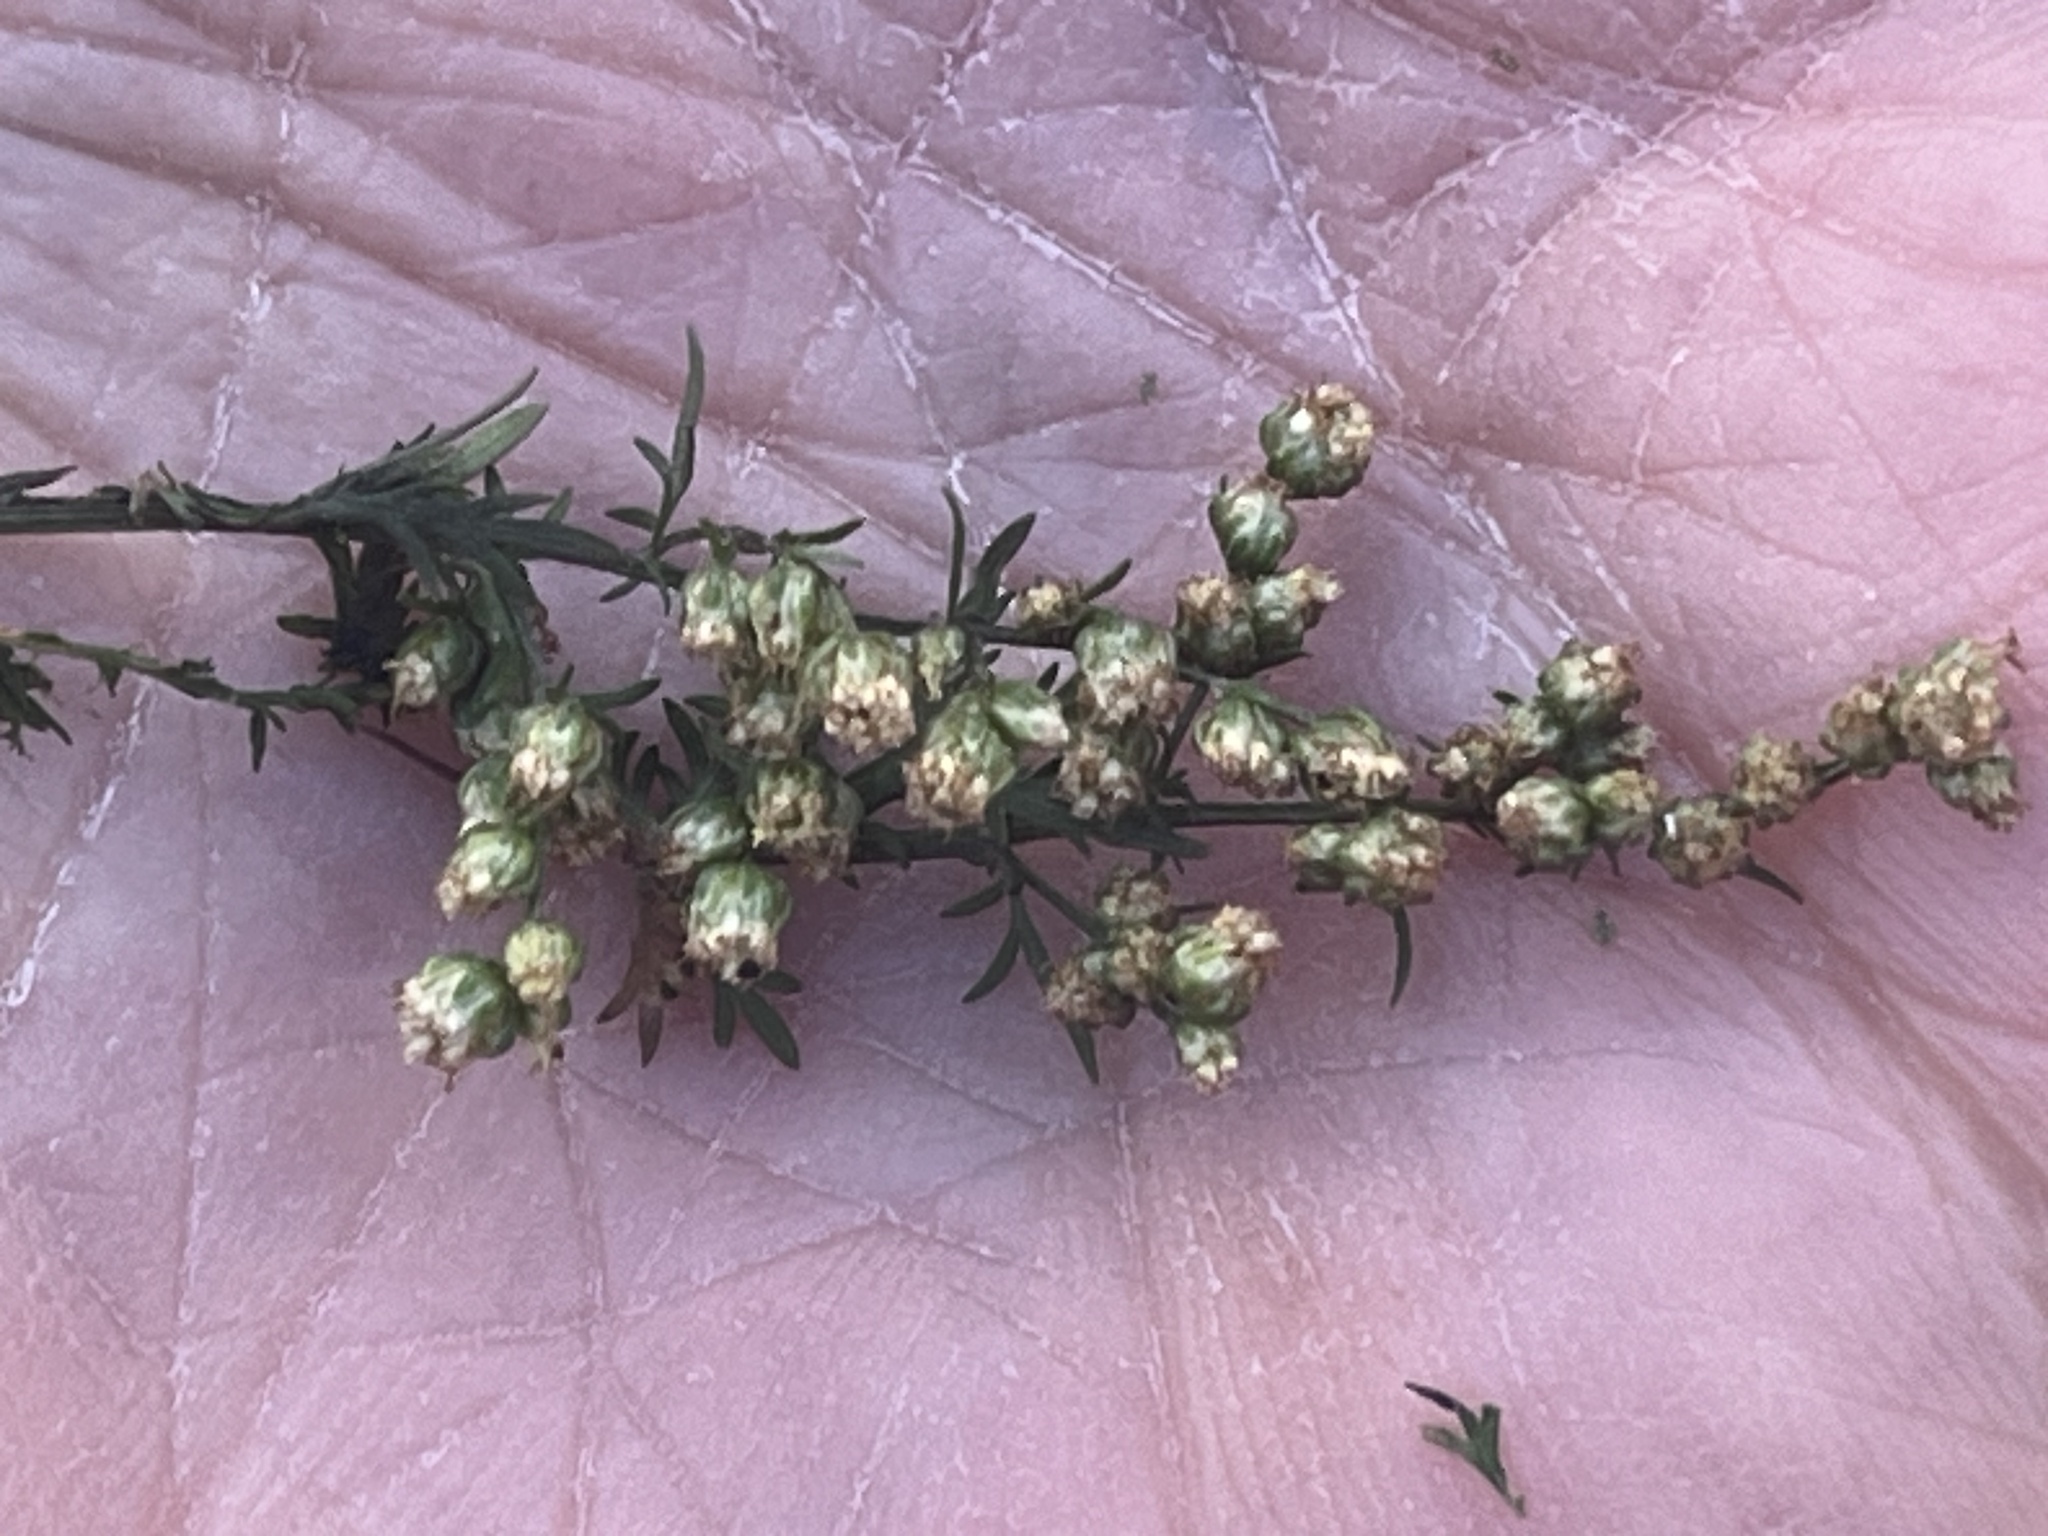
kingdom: Plantae
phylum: Tracheophyta
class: Magnoliopsida
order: Asterales
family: Asteraceae
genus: Artemisia
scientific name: Artemisia annua
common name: Sweet sagewort
